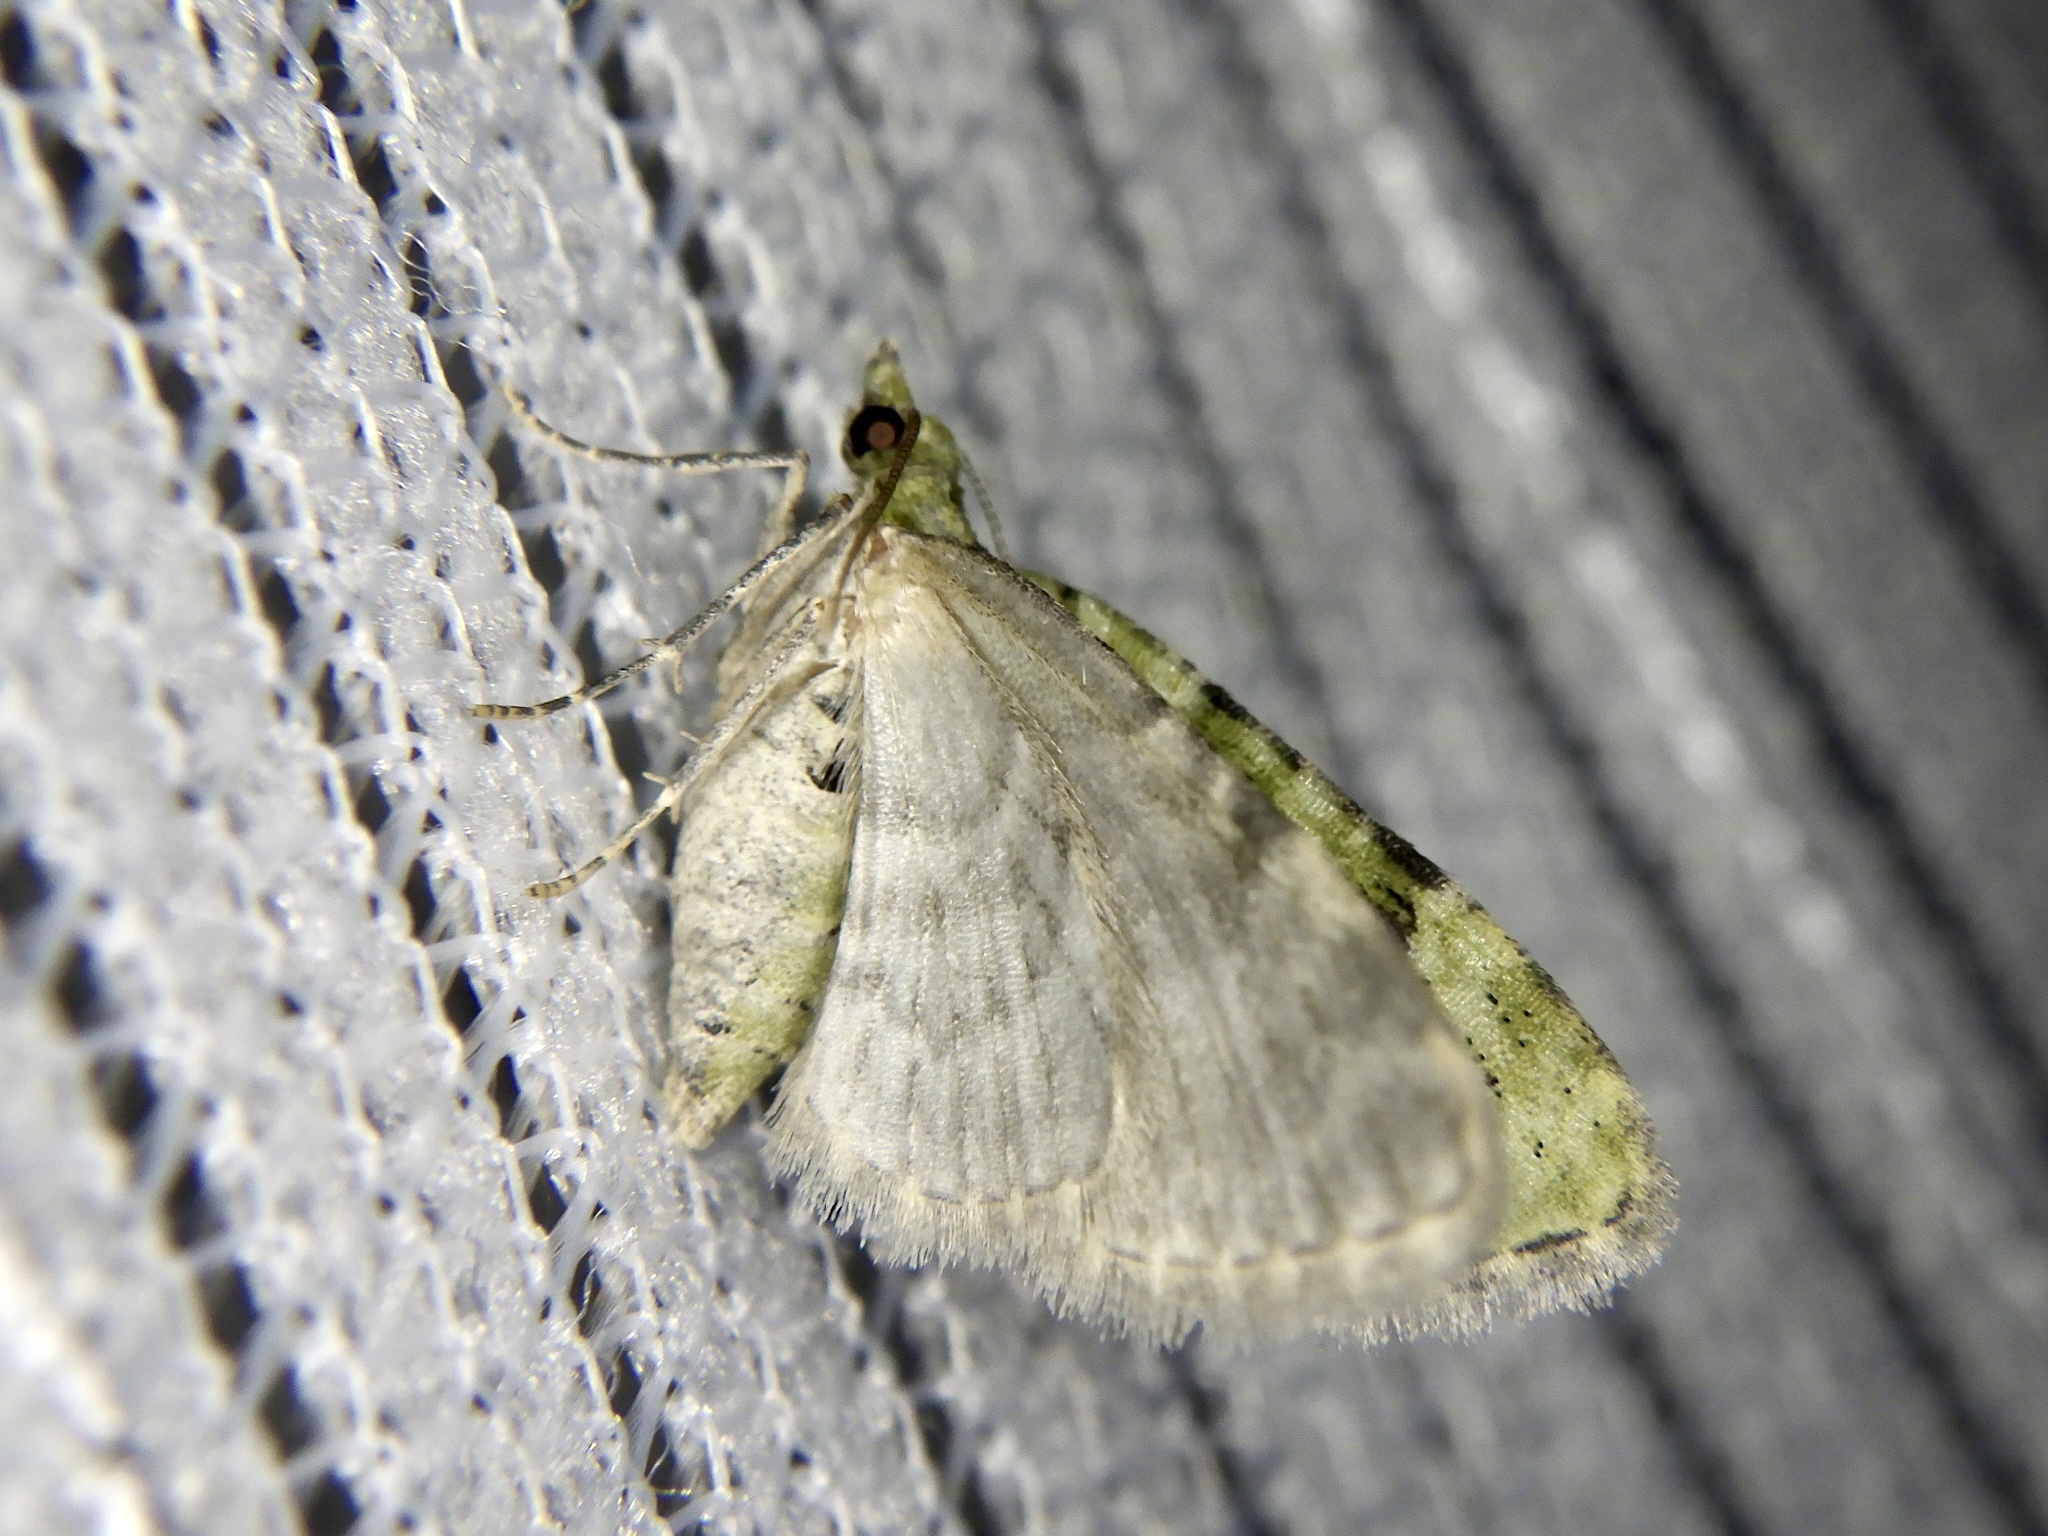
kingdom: Animalia
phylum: Arthropoda
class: Insecta
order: Lepidoptera
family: Geometridae
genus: Chloroclystis
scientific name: Chloroclystis v-ata
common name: V-pug
